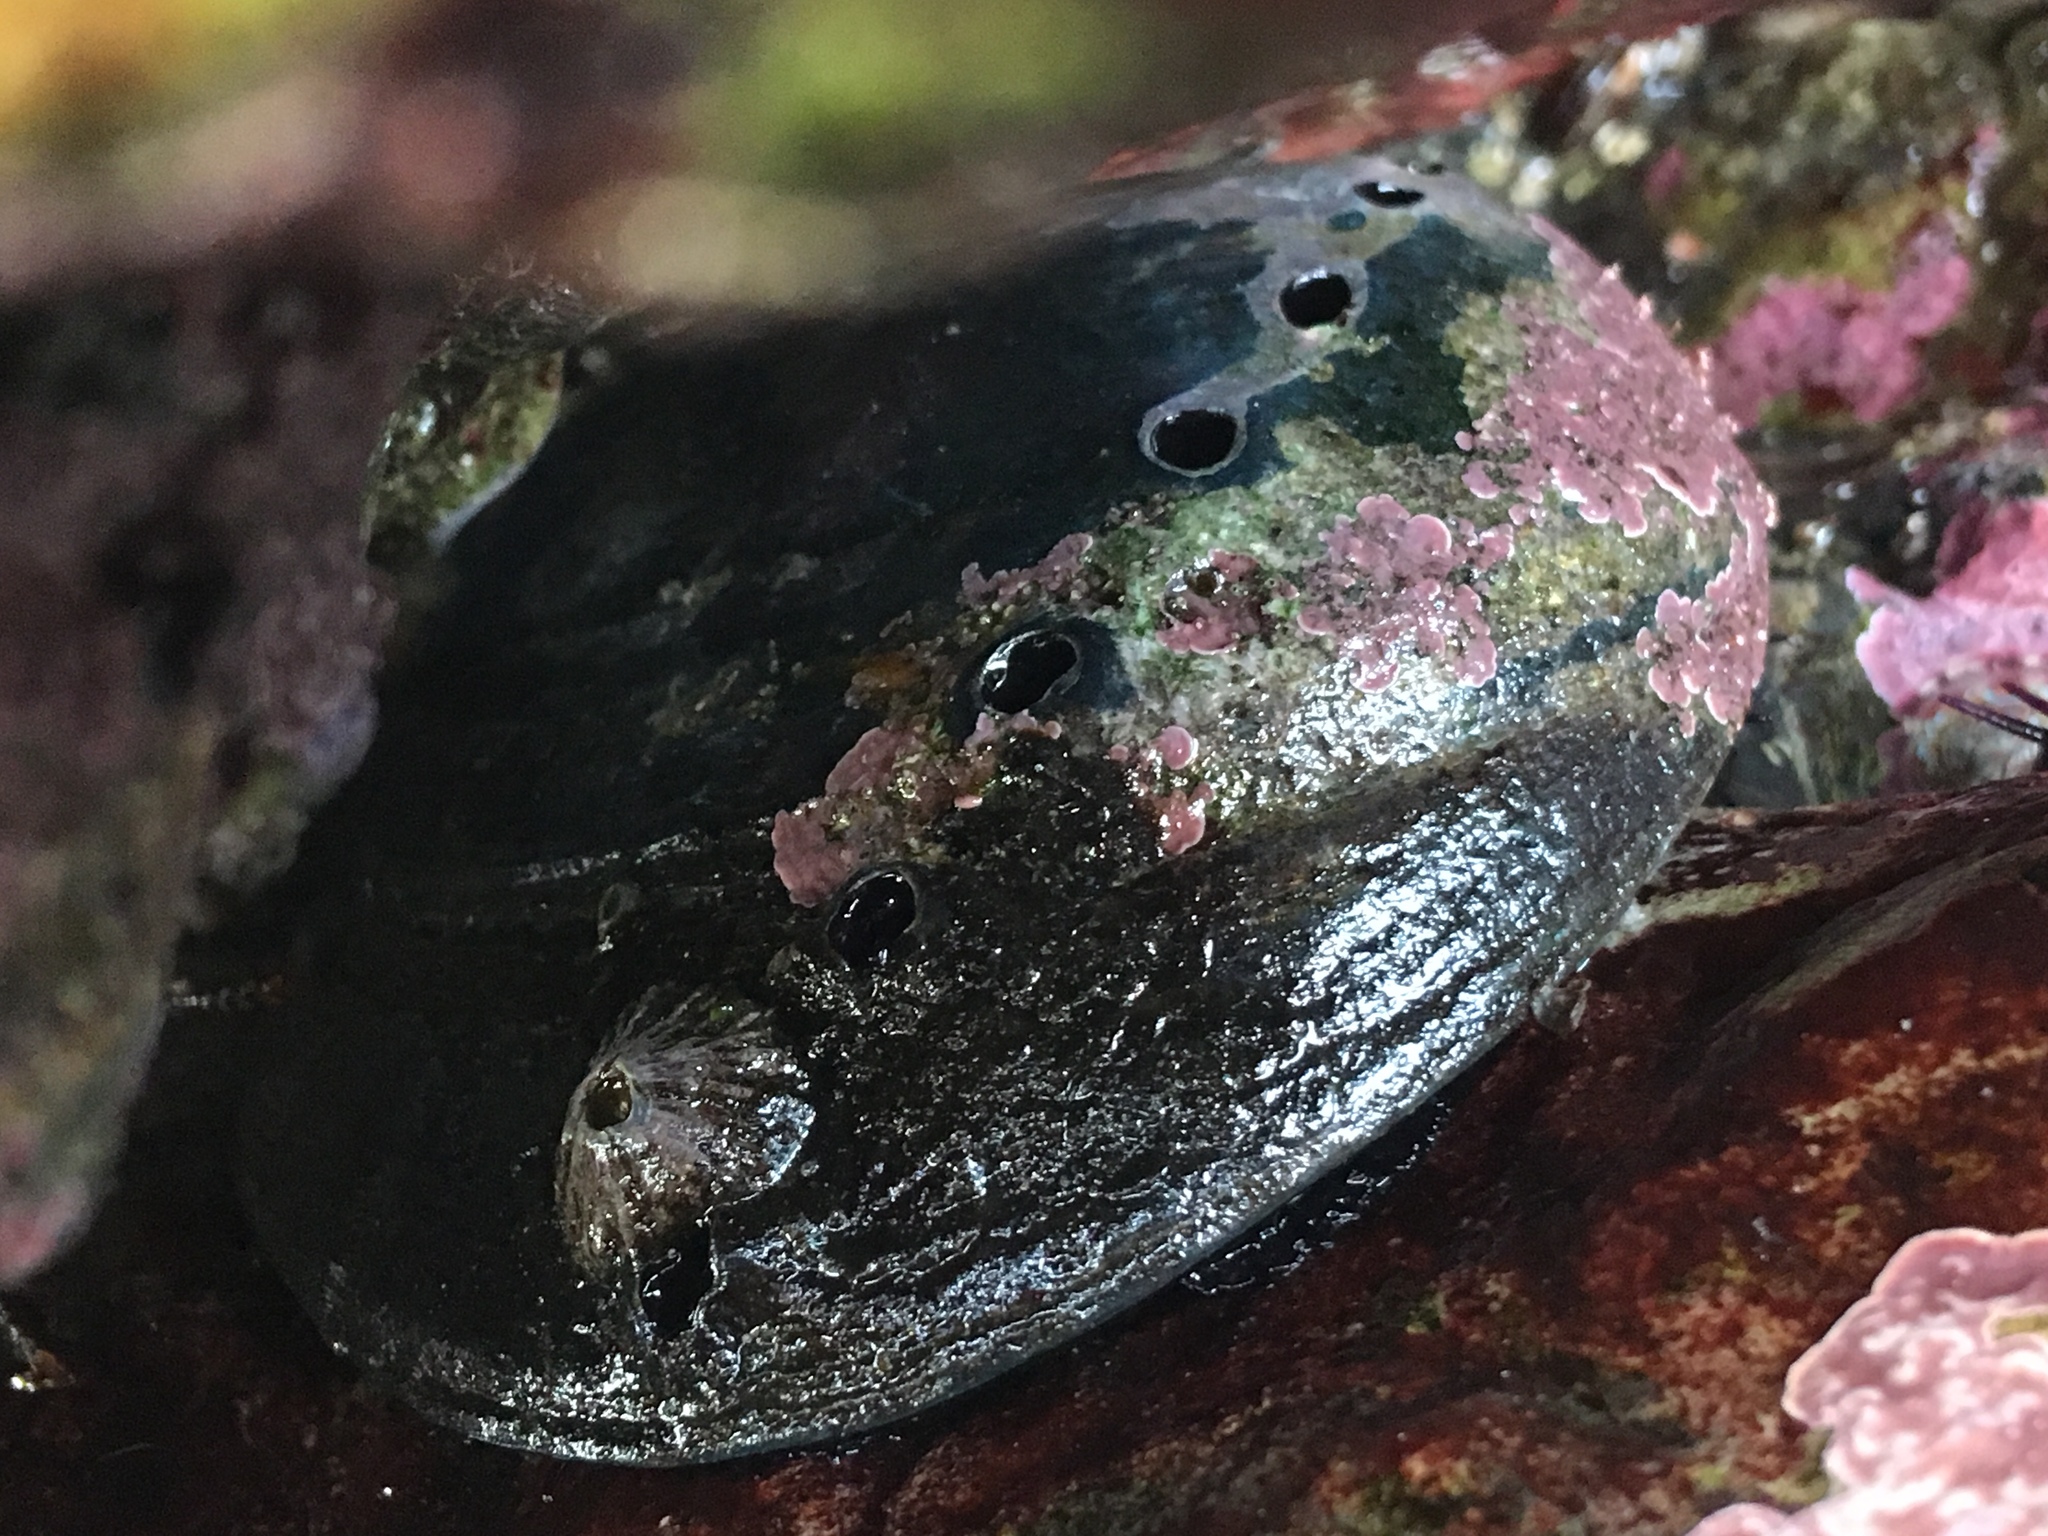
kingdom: Animalia
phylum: Mollusca
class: Gastropoda
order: Lepetellida
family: Haliotidae
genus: Haliotis
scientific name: Haliotis cracherodii
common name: Black abalone
